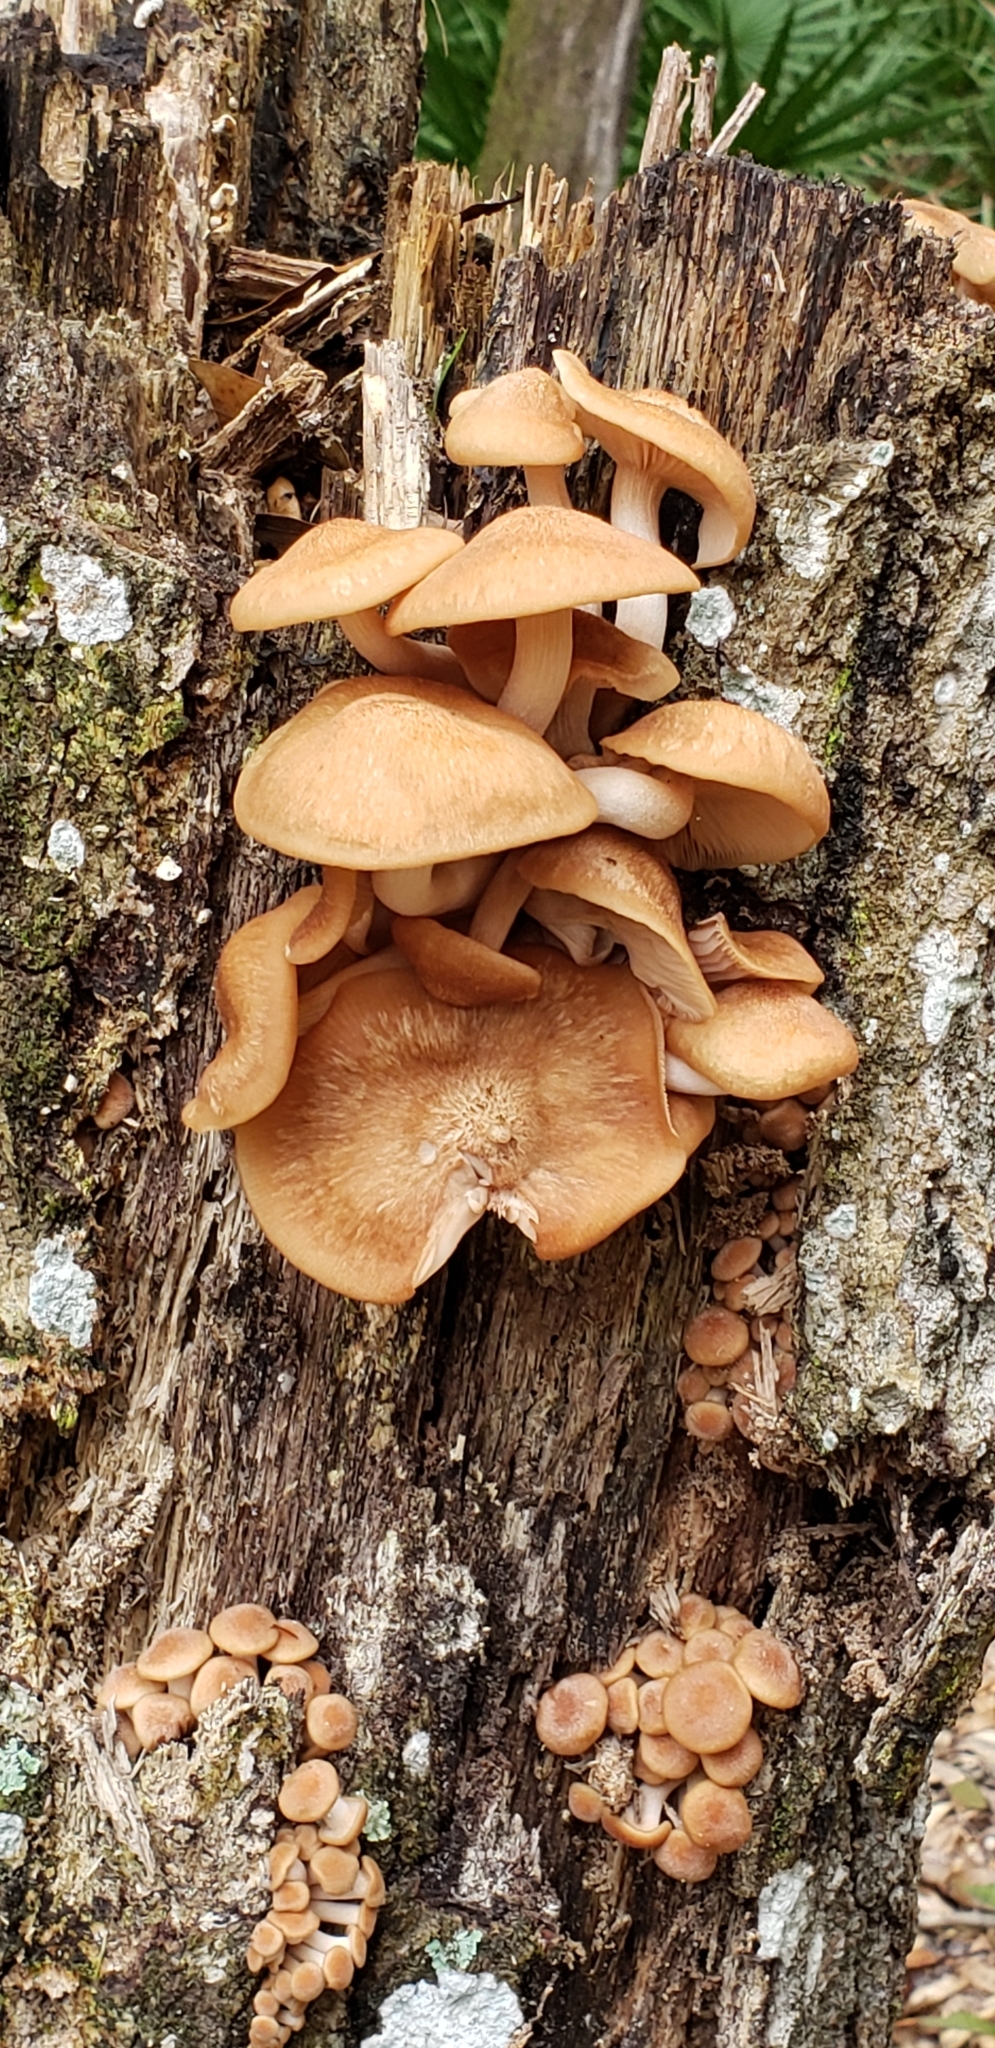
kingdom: Fungi
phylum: Basidiomycota
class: Agaricomycetes
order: Agaricales
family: Physalacriaceae
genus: Desarmillaria
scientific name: Desarmillaria caespitosa
